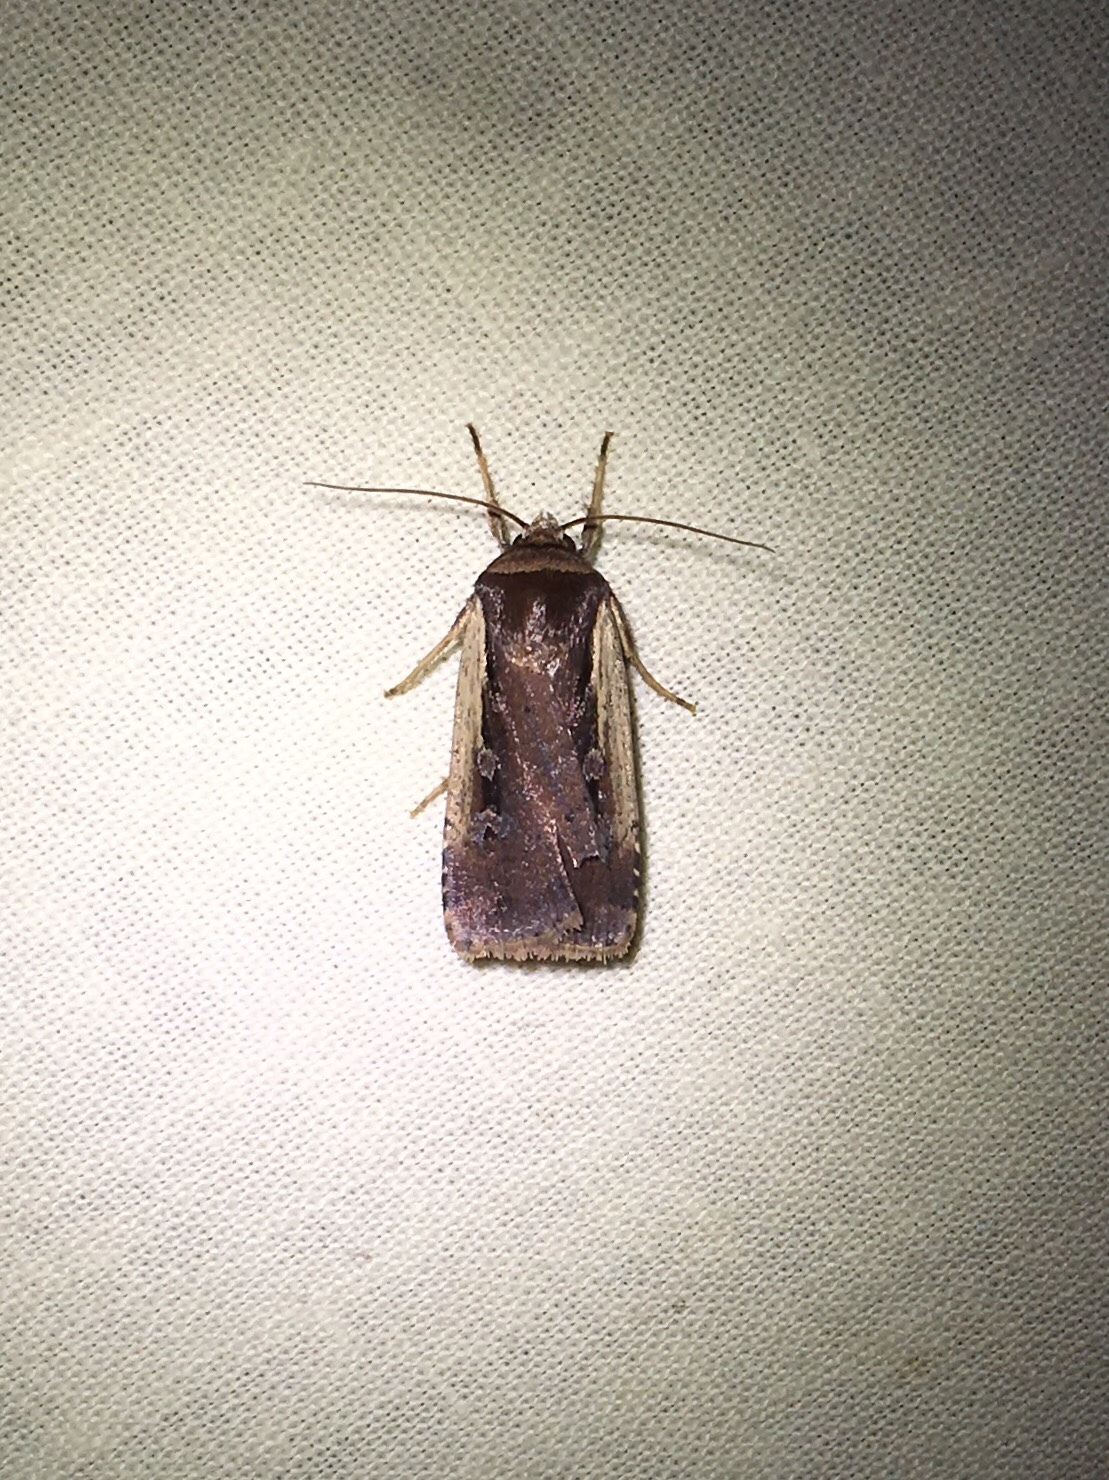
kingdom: Animalia
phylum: Arthropoda
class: Insecta
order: Lepidoptera
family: Noctuidae
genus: Ochropleura
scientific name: Ochropleura implecta
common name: Flame-shouldered dart
